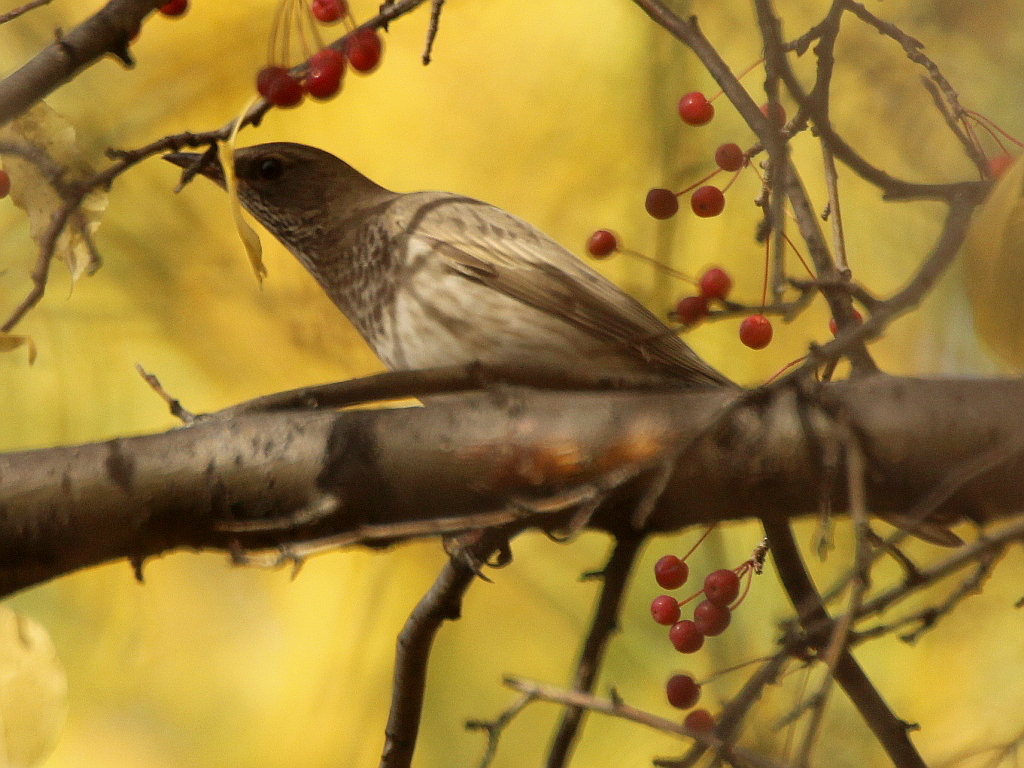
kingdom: Animalia
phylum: Chordata
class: Aves
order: Passeriformes
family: Turdidae
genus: Turdus
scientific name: Turdus atrogularis
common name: Black-throated thrush
